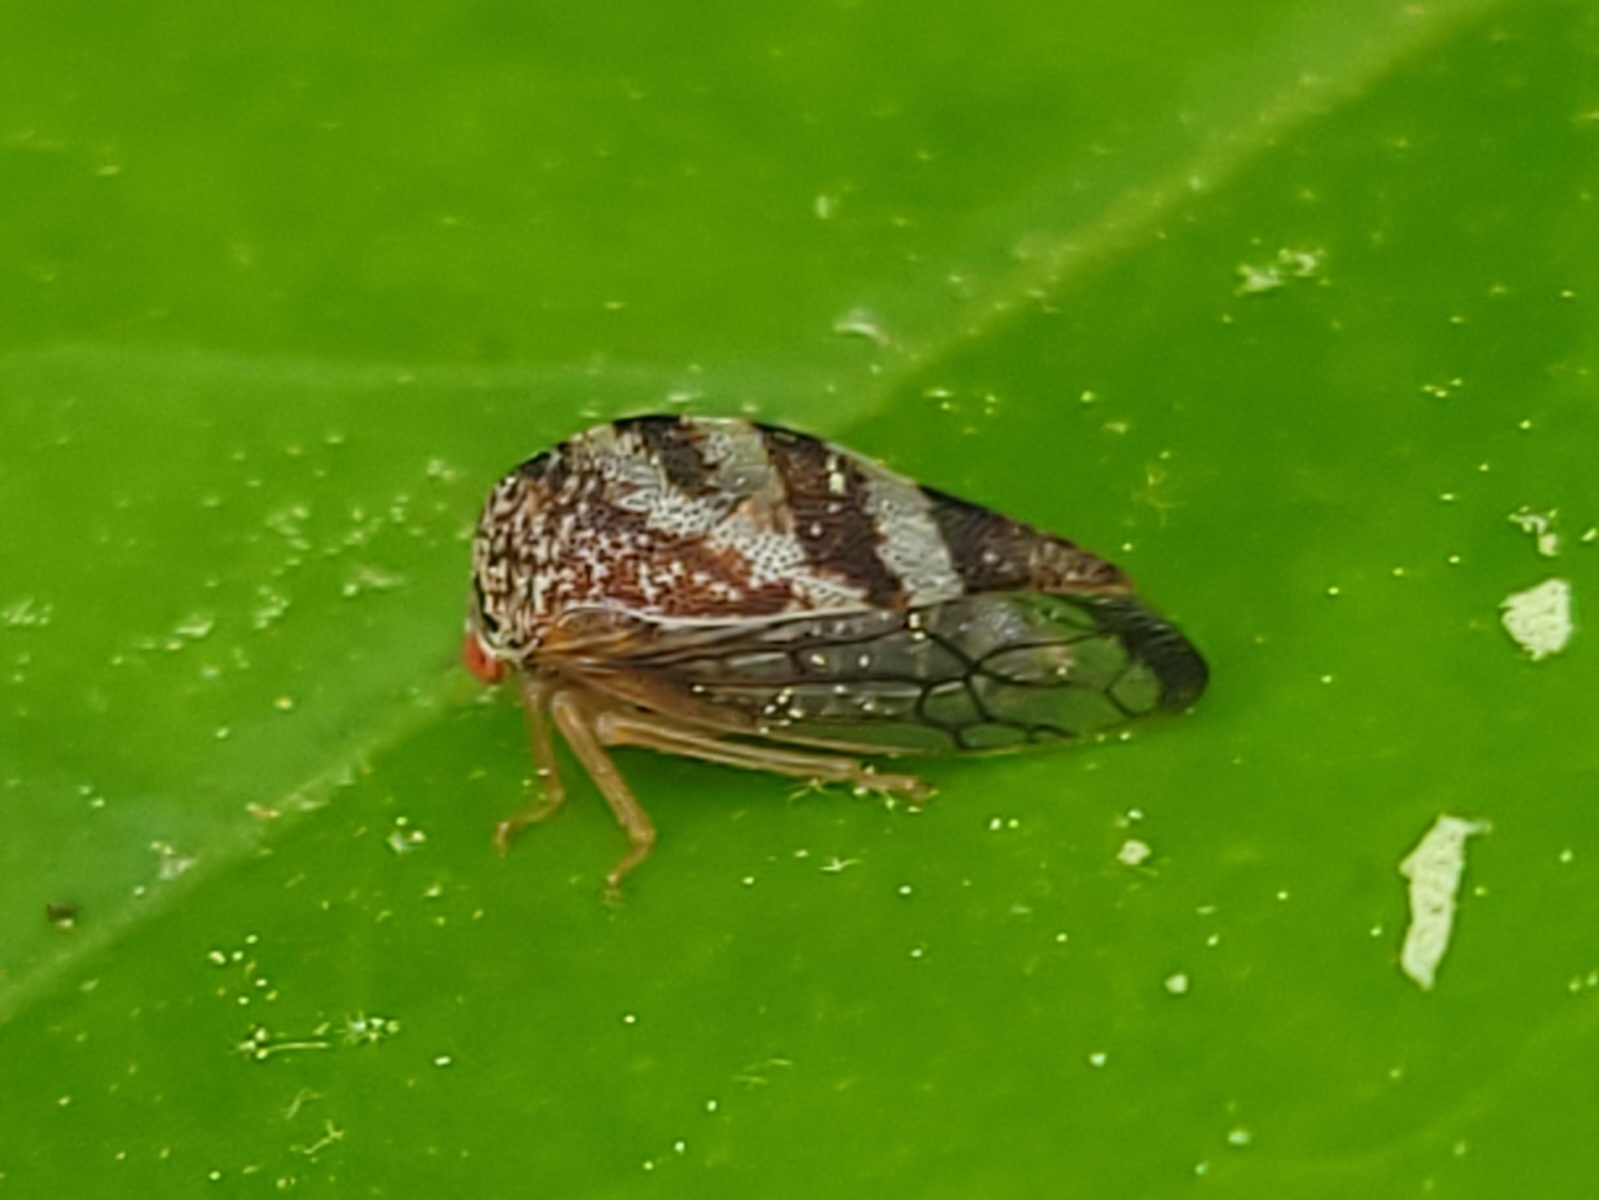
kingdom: Animalia
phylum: Arthropoda
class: Insecta
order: Hemiptera
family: Membracidae
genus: Cyrtolobus
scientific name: Cyrtolobus arcuata
